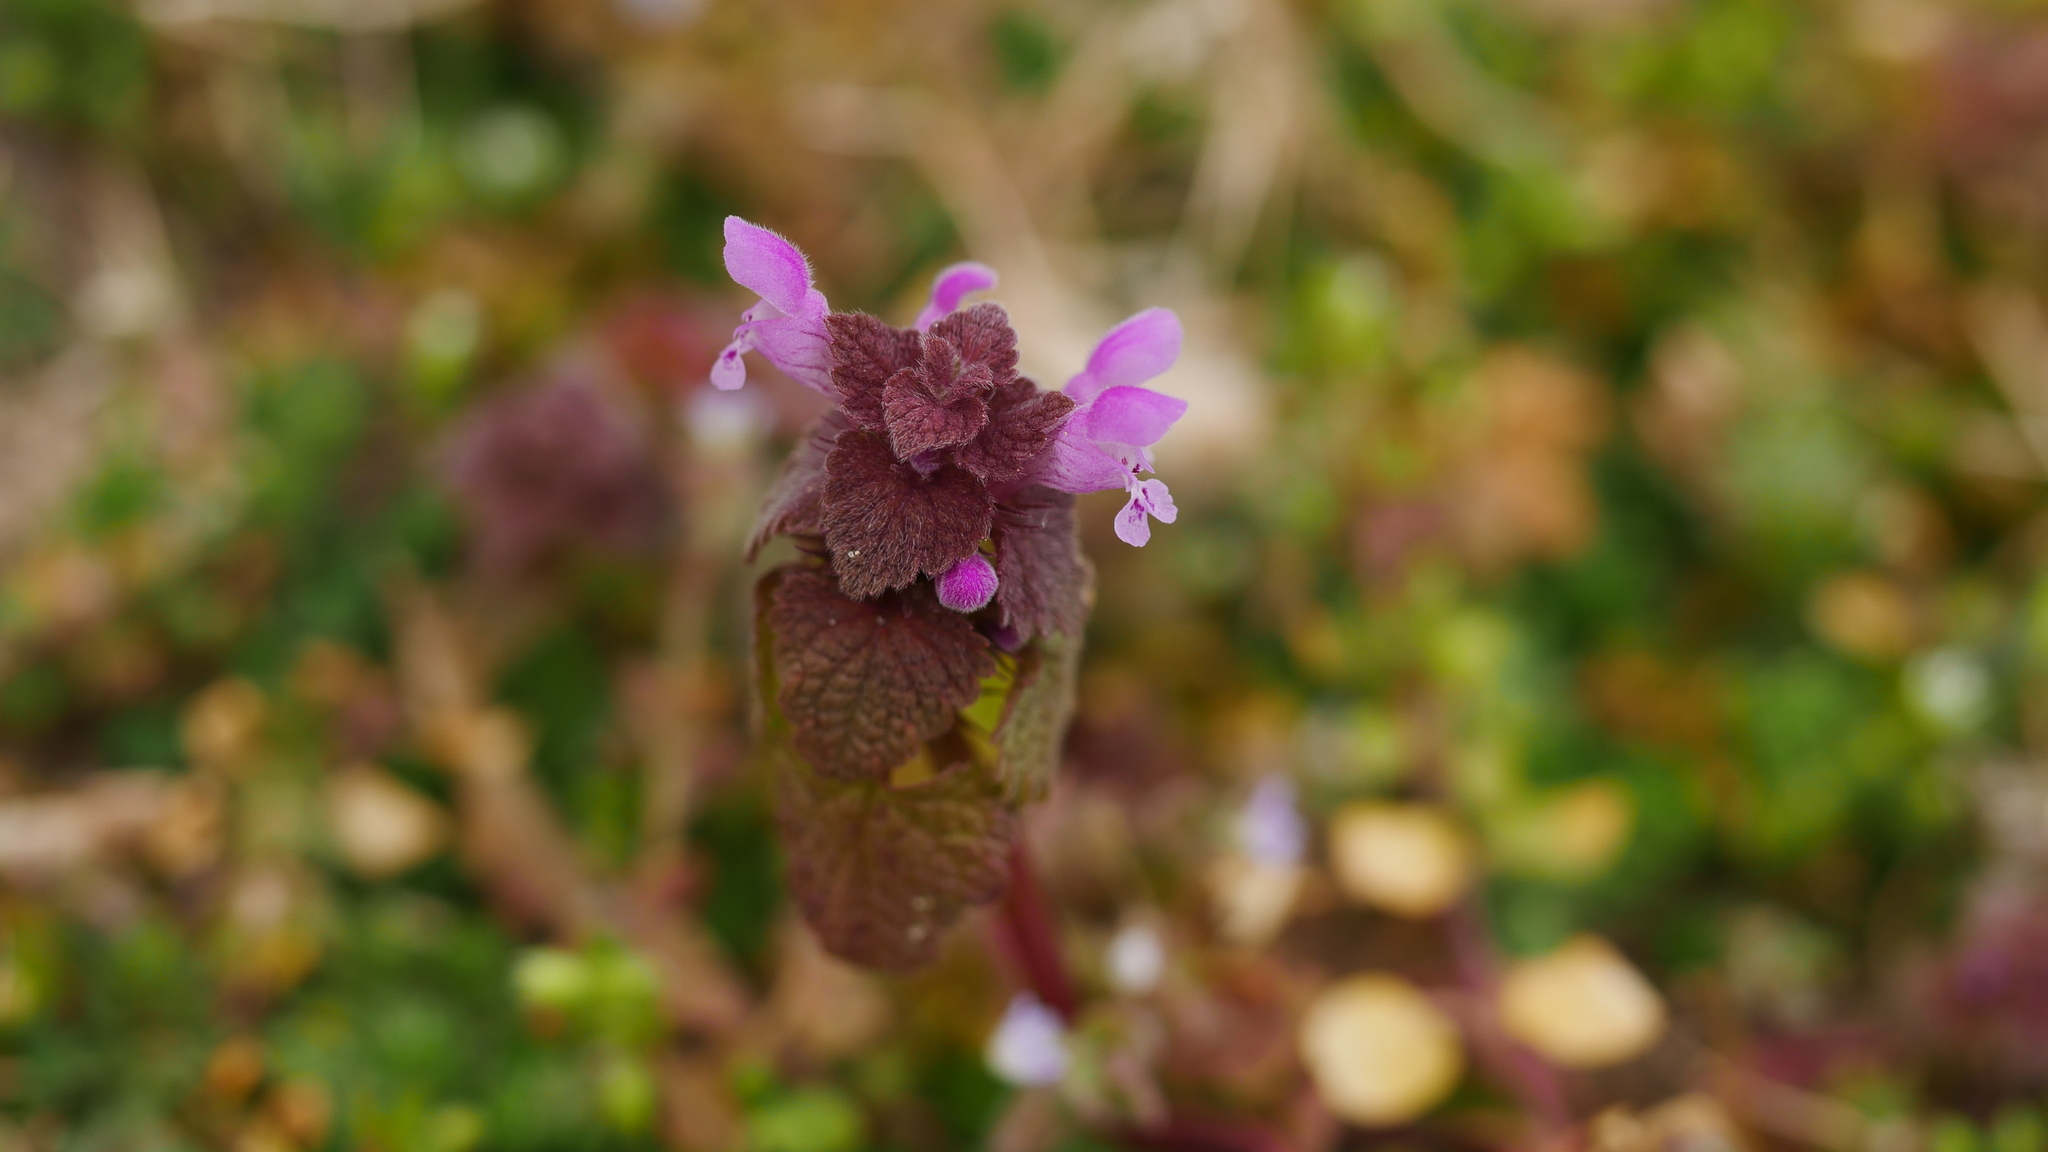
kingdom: Plantae
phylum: Tracheophyta
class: Magnoliopsida
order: Lamiales
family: Lamiaceae
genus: Lamium
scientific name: Lamium purpureum
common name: Red dead-nettle
